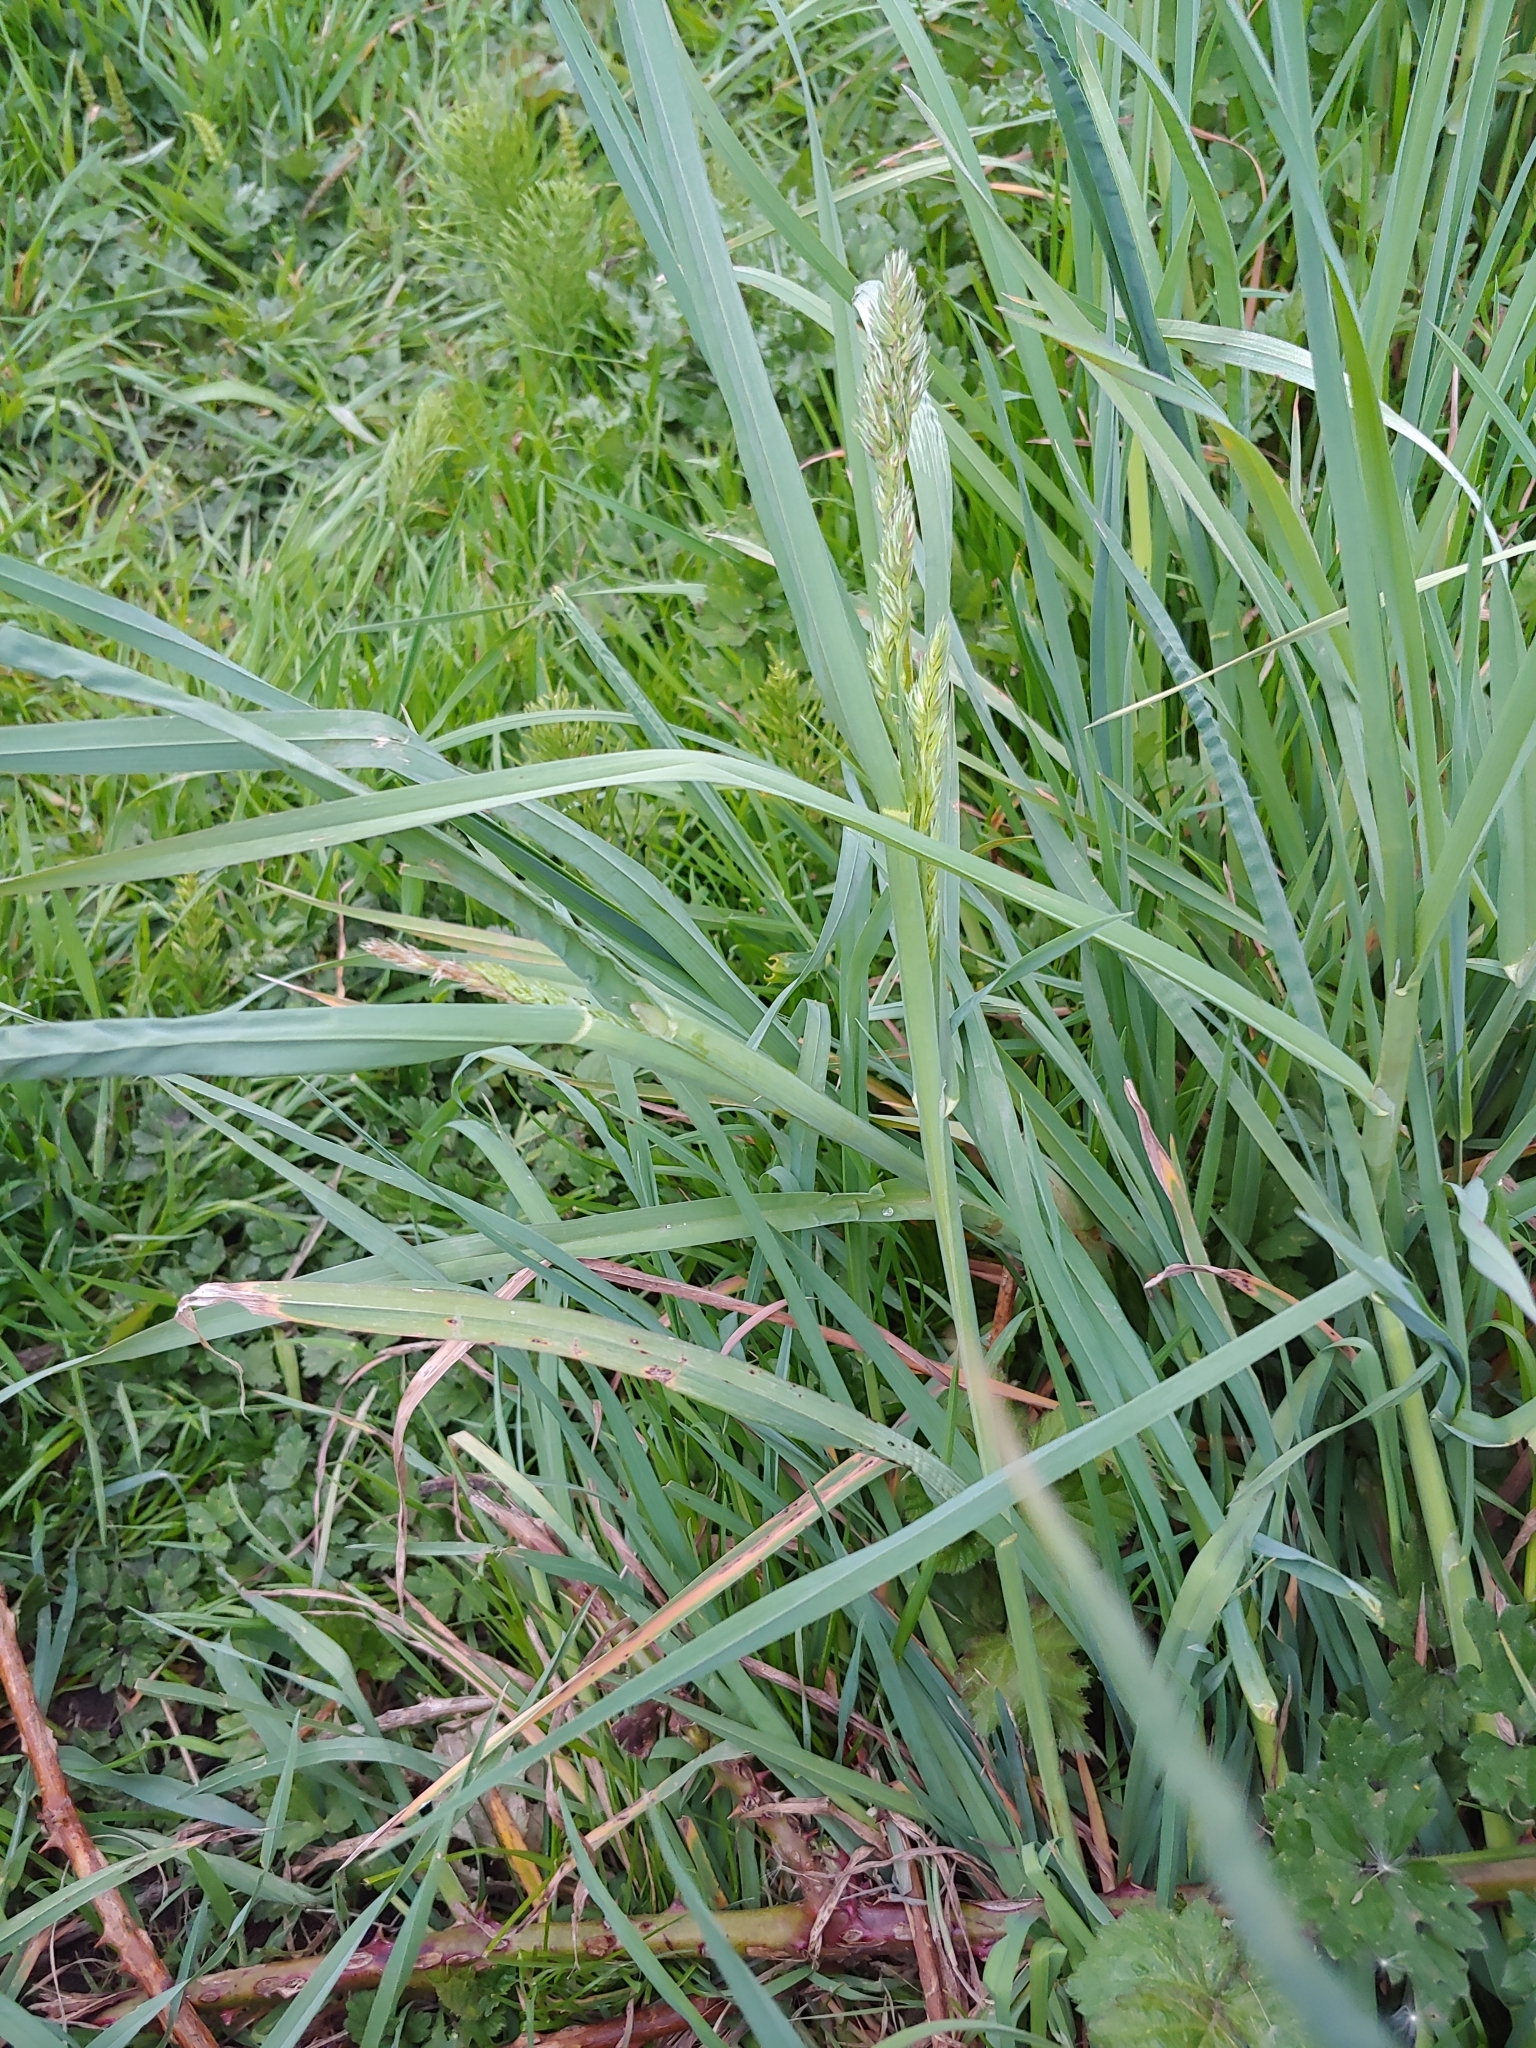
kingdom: Plantae
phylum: Tracheophyta
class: Liliopsida
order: Poales
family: Poaceae
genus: Dactylis
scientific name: Dactylis glomerata
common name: Orchardgrass
